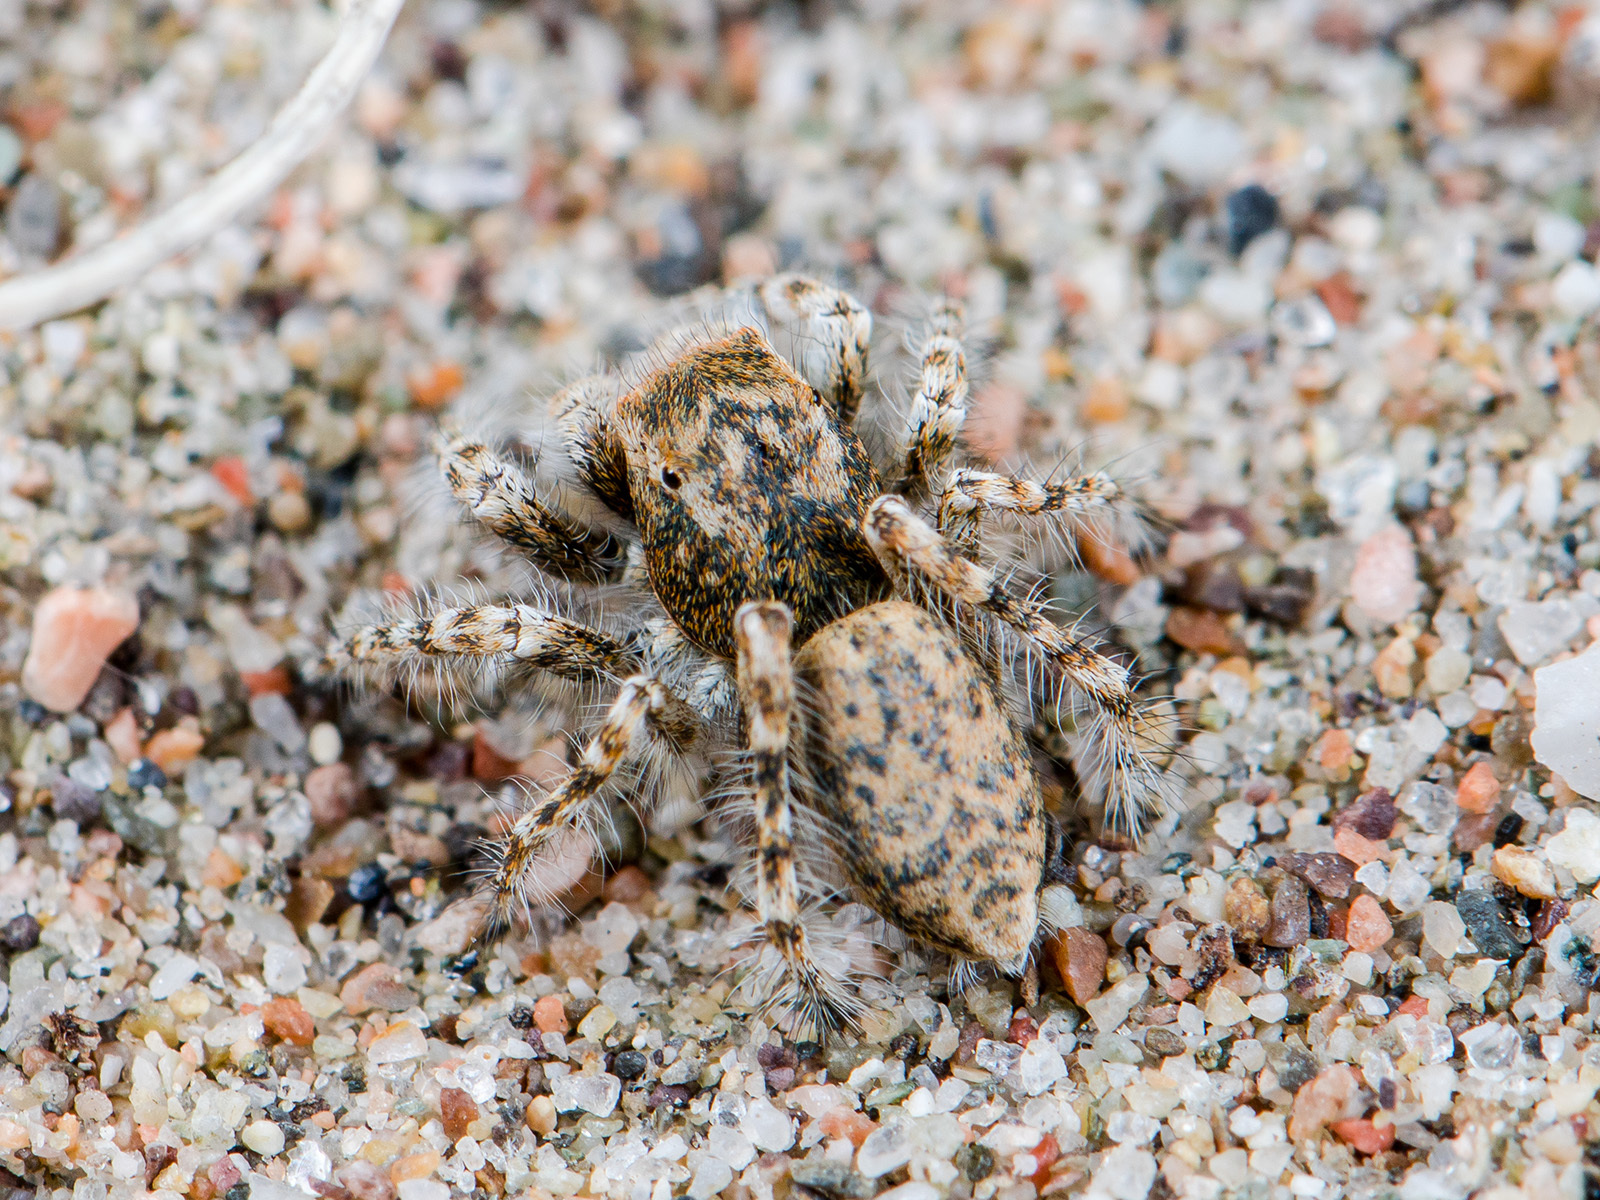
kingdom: Animalia
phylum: Arthropoda
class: Arachnida
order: Araneae
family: Salticidae
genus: Yllenus
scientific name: Yllenus uiguricus
